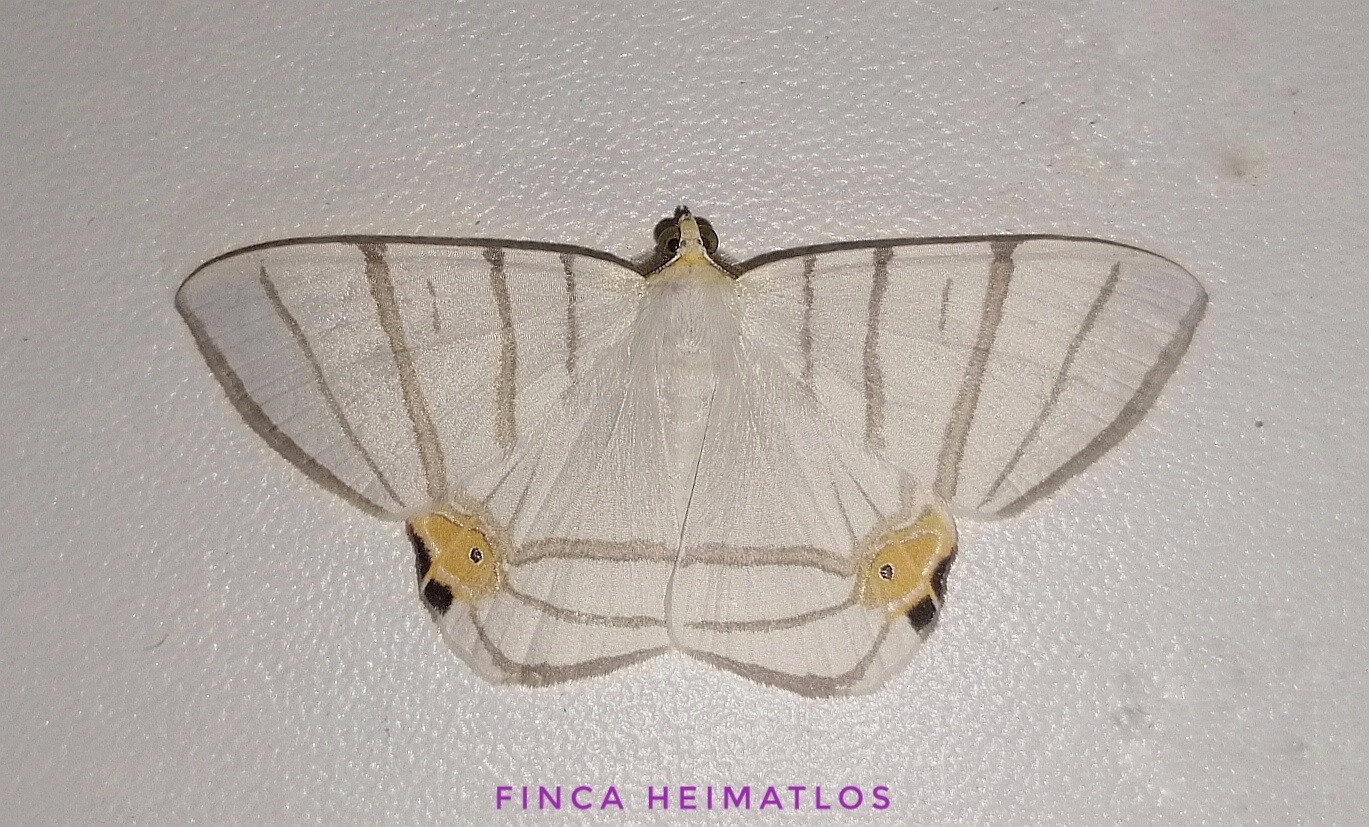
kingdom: Animalia
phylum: Arthropoda
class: Insecta
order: Lepidoptera
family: Geometridae
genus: Opisthoxia
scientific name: Opisthoxia saturniaria
